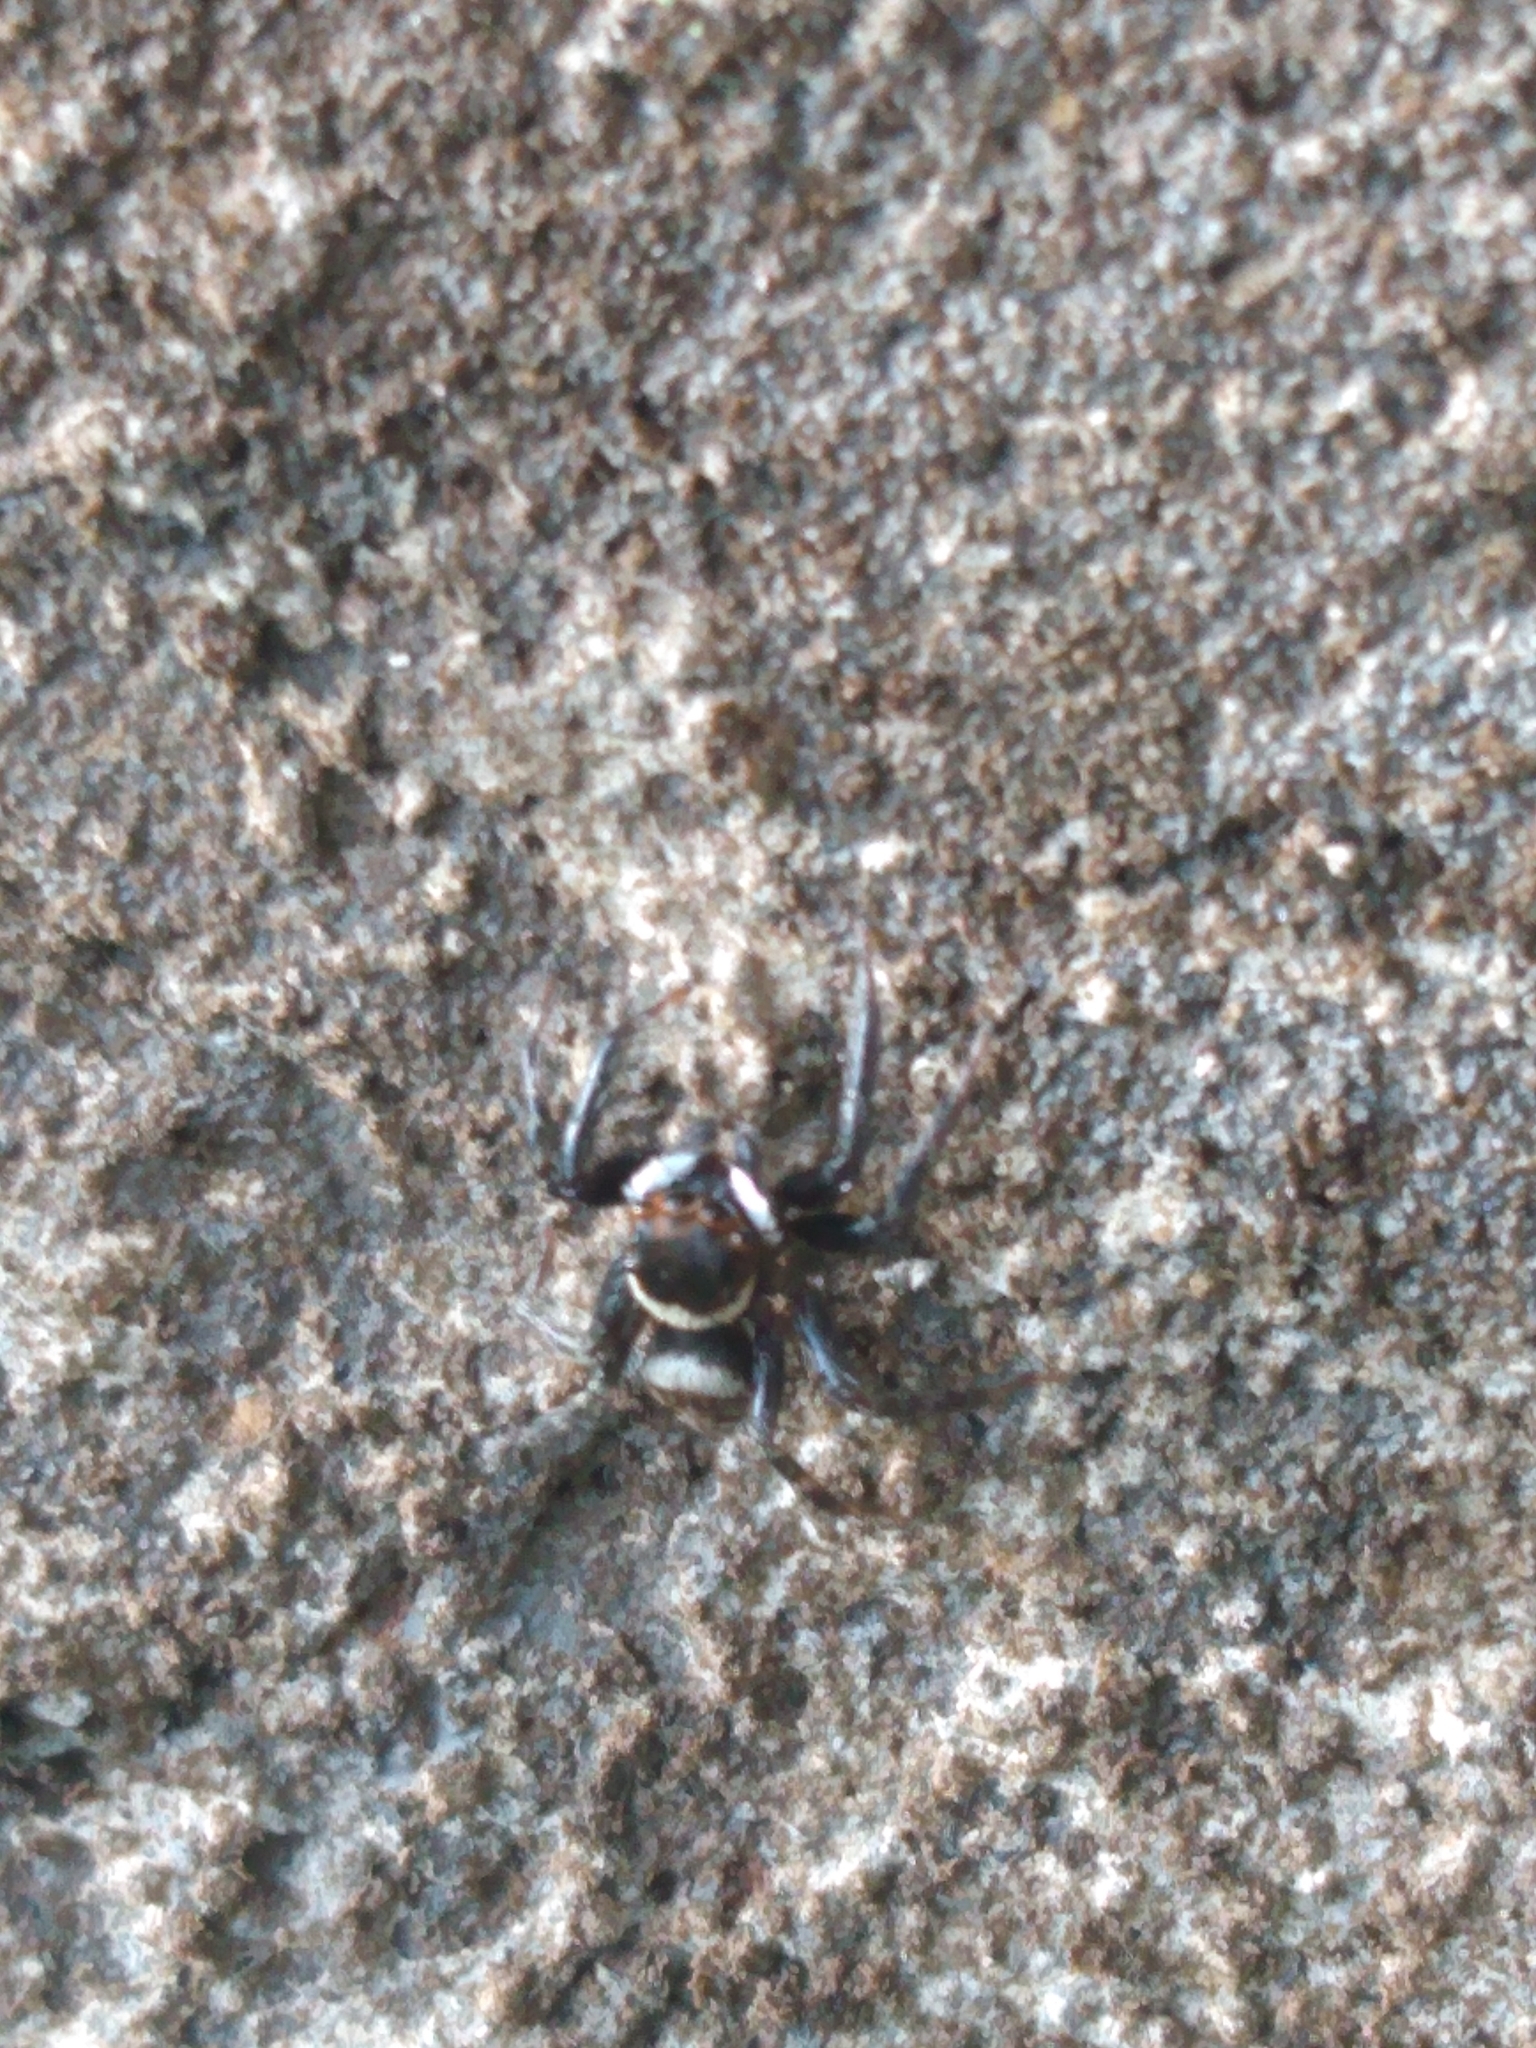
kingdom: Animalia
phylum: Arthropoda
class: Arachnida
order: Araneae
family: Salticidae
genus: Hasarius
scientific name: Hasarius adansoni
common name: Jumping spider
